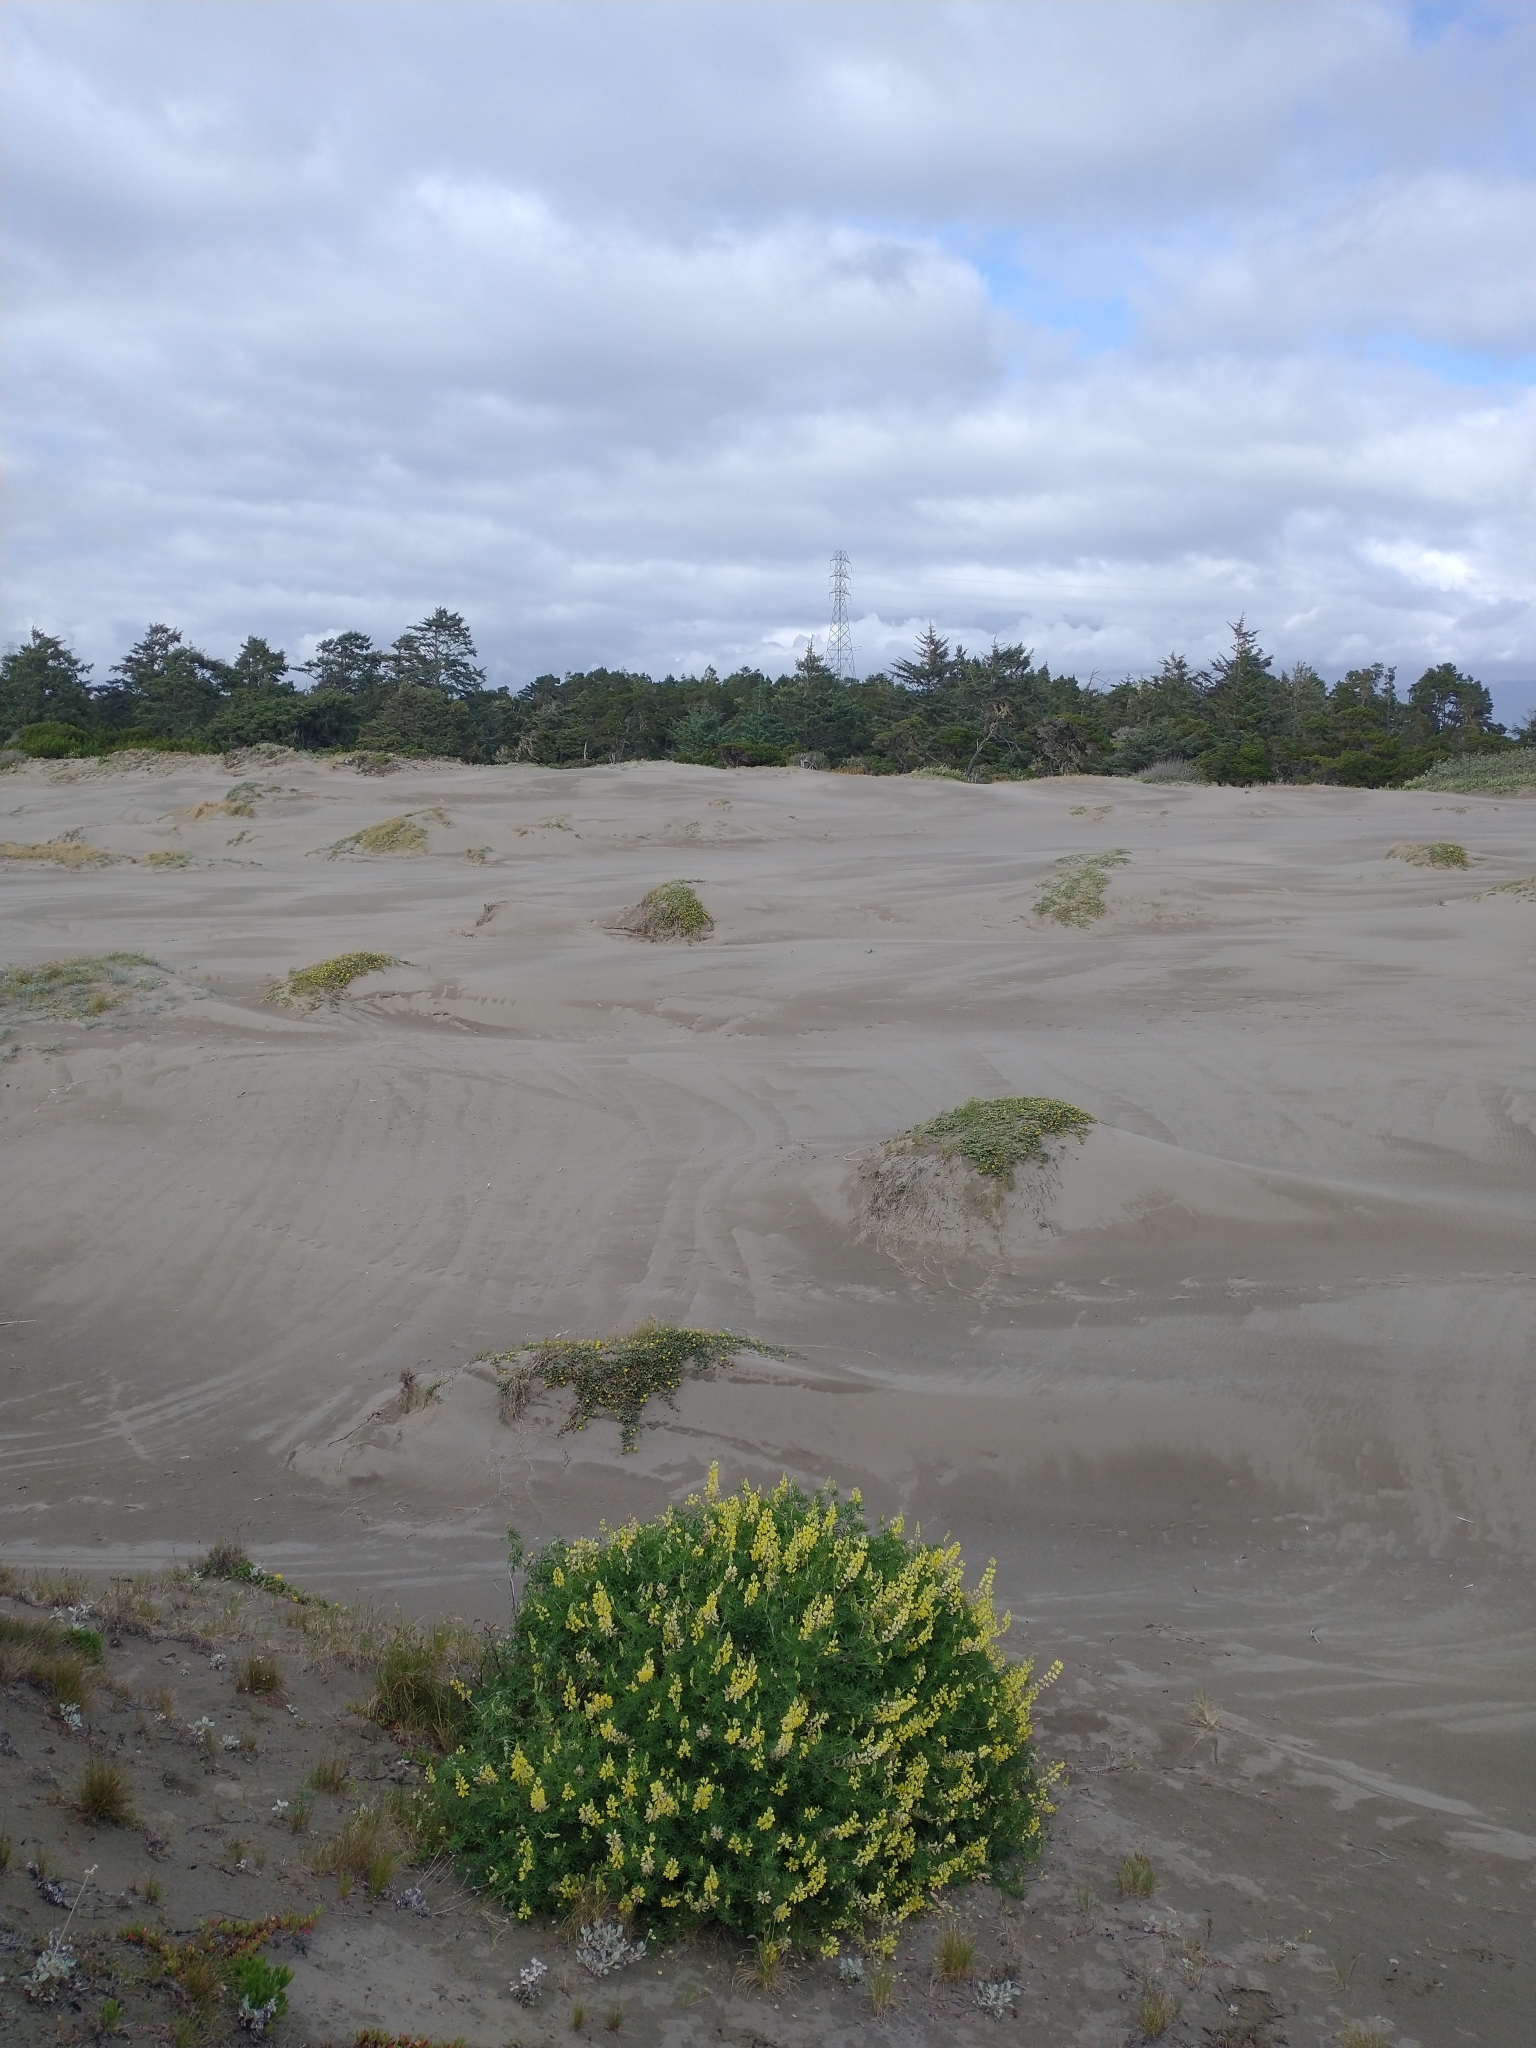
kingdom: Plantae
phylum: Tracheophyta
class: Magnoliopsida
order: Fabales
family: Fabaceae
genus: Lupinus
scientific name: Lupinus arboreus
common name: Yellow bush lupine
